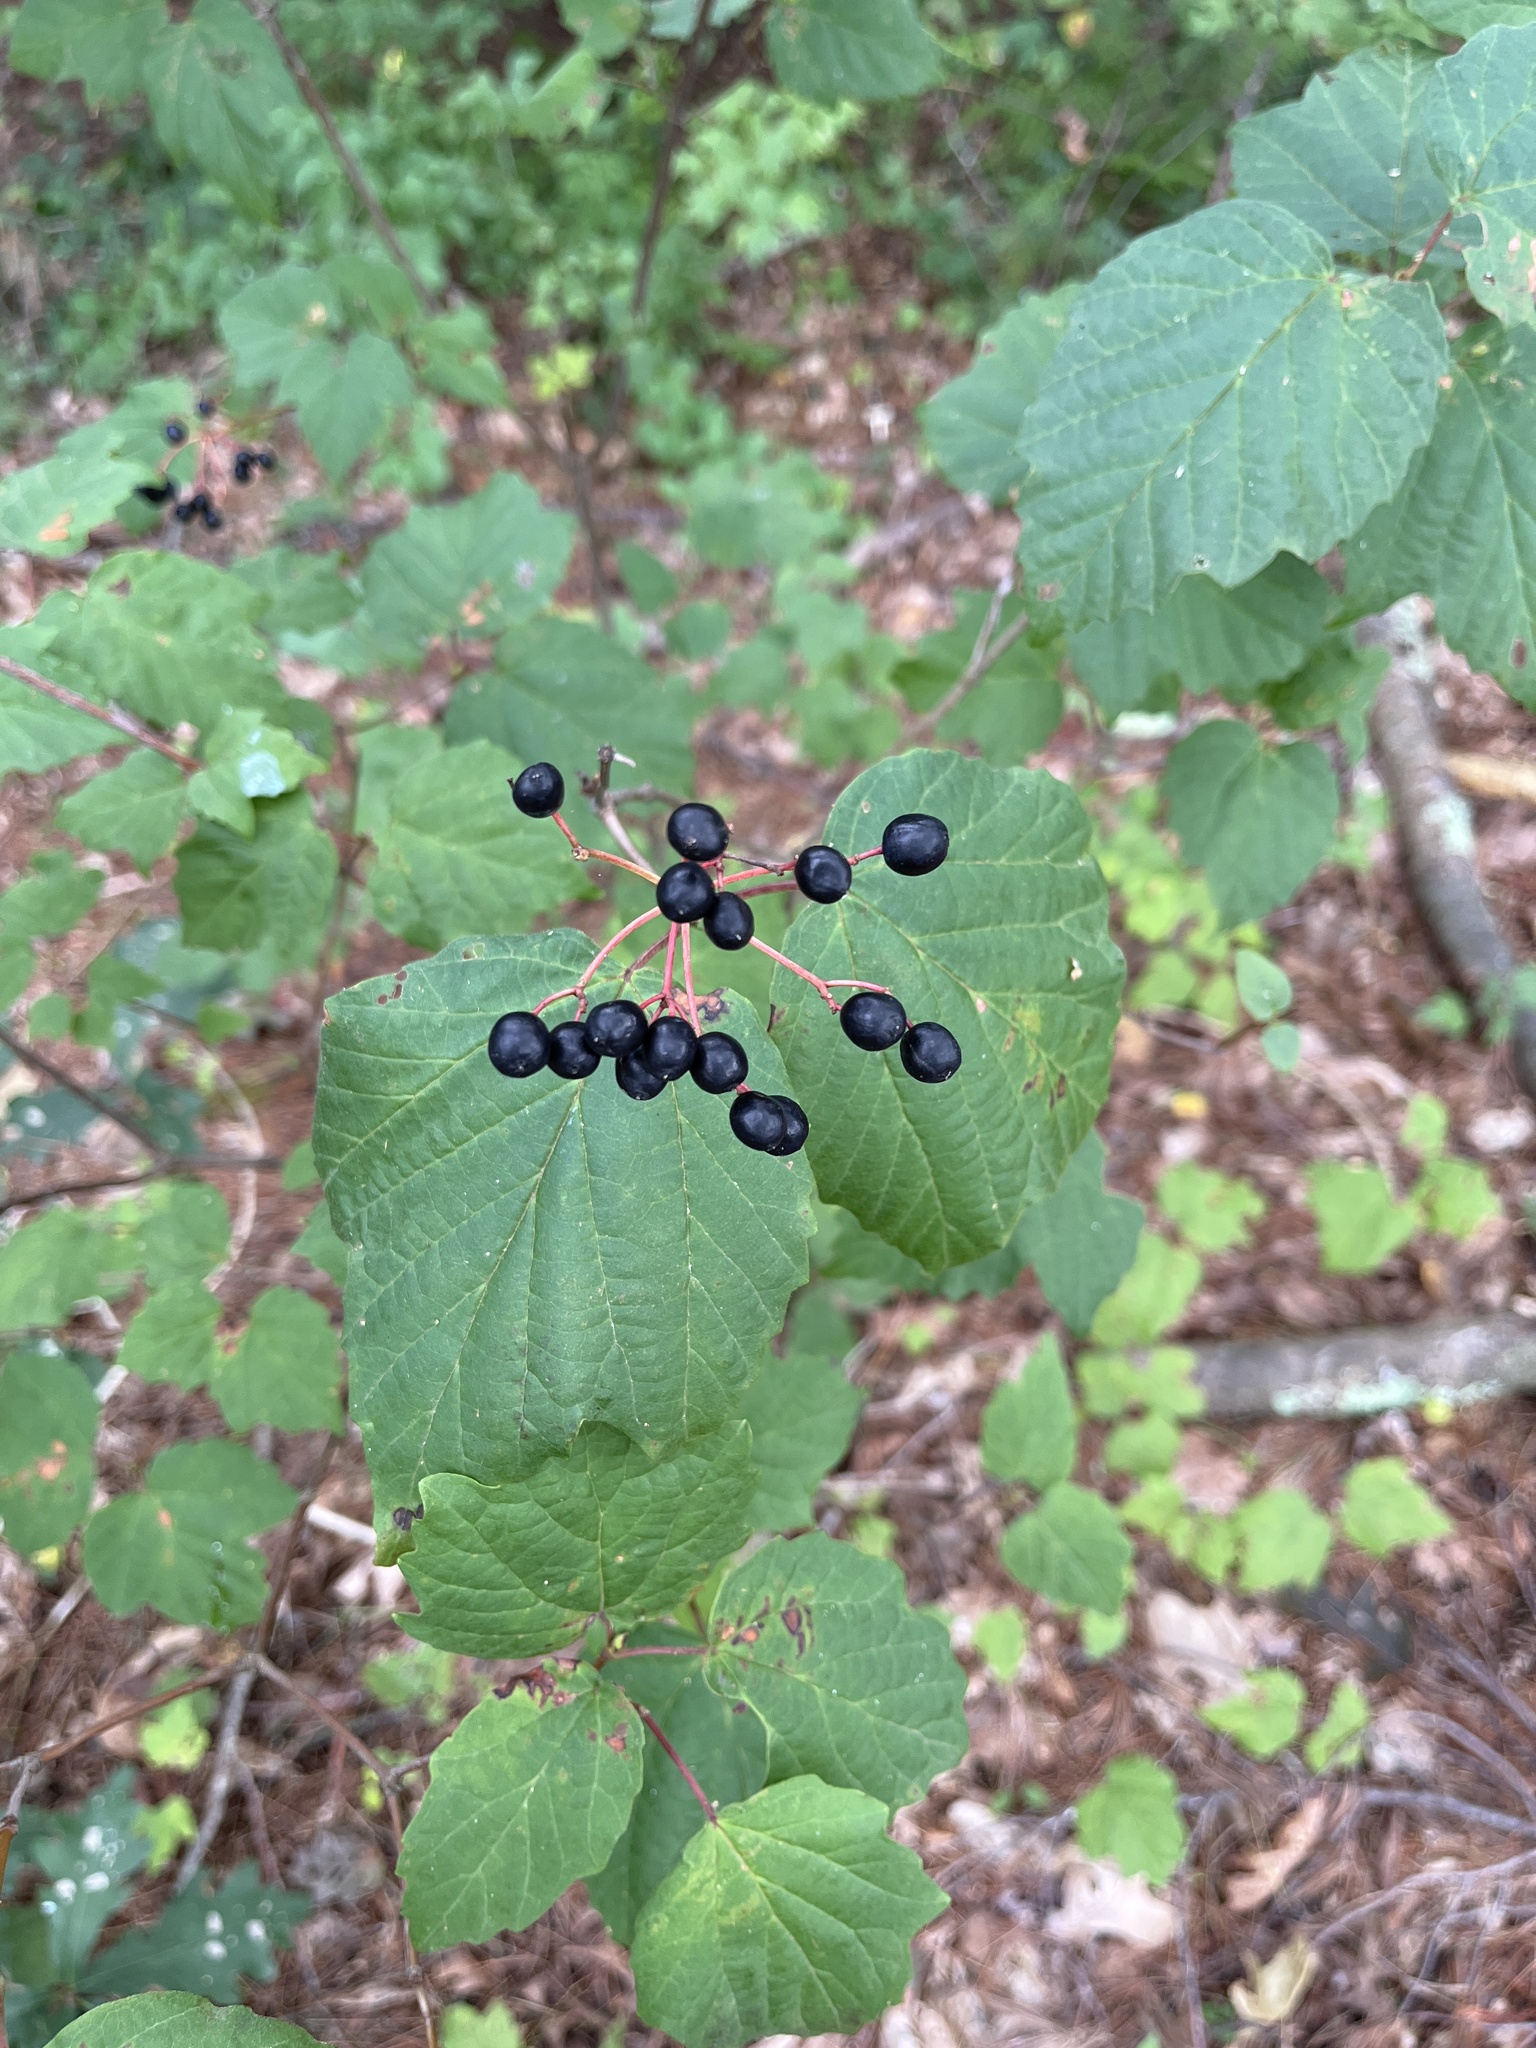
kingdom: Plantae
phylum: Tracheophyta
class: Magnoliopsida
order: Dipsacales
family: Viburnaceae
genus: Viburnum
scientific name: Viburnum acerifolium
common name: Dockmackie
